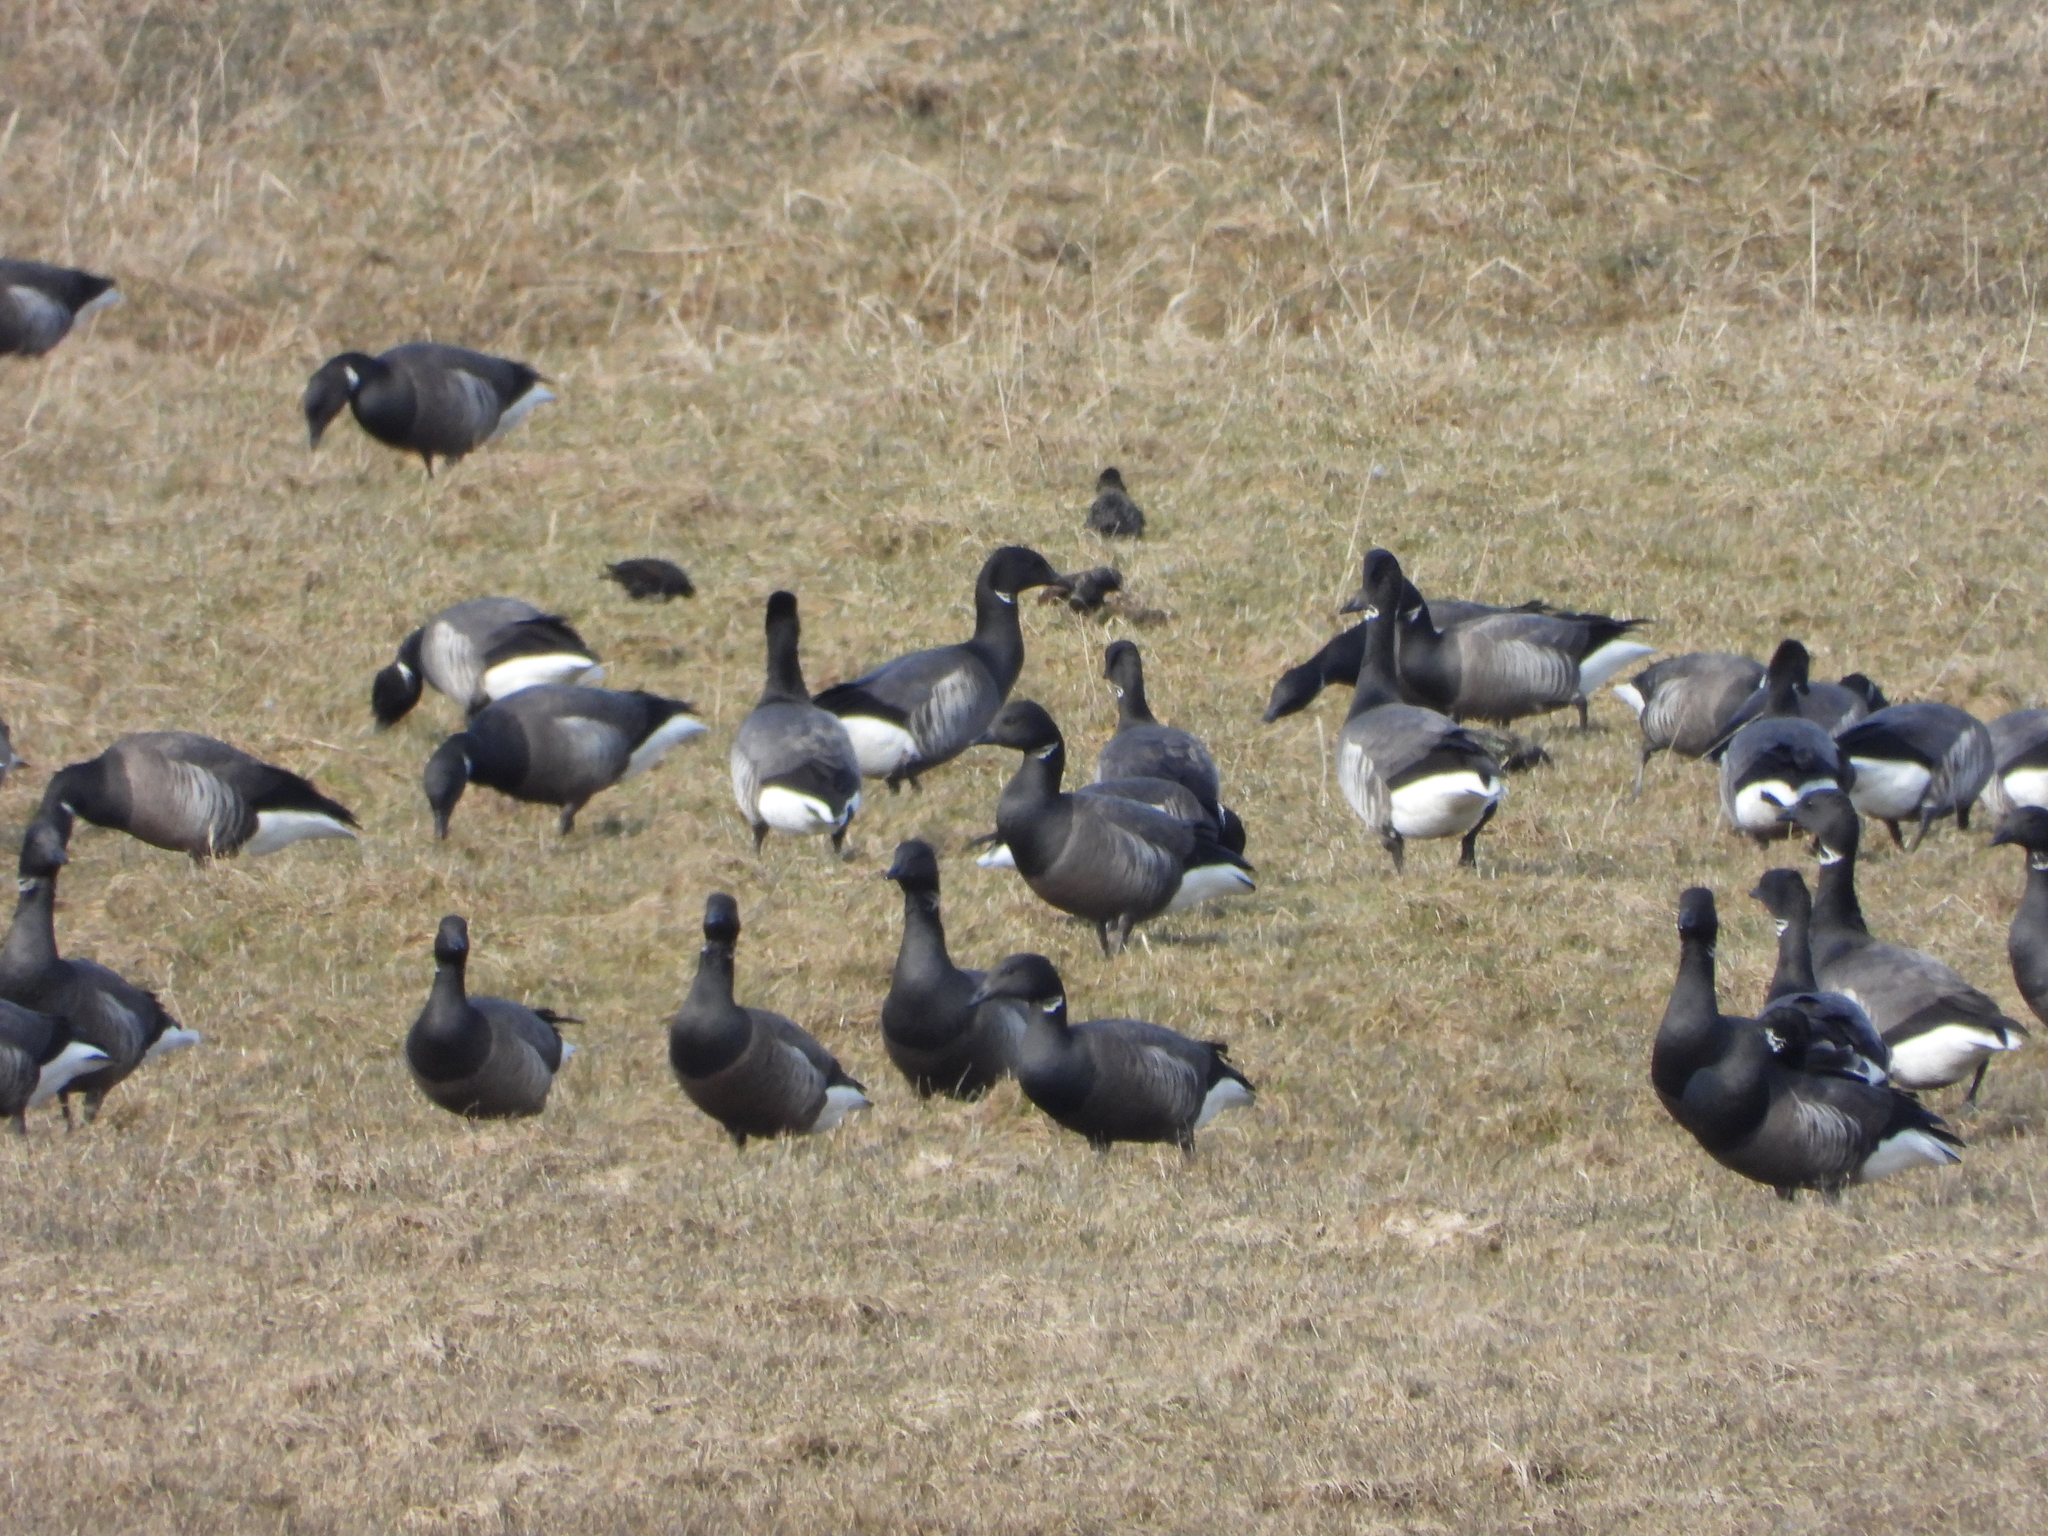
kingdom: Animalia
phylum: Chordata
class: Aves
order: Anseriformes
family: Anatidae
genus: Branta
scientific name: Branta bernicla
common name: Brant goose
